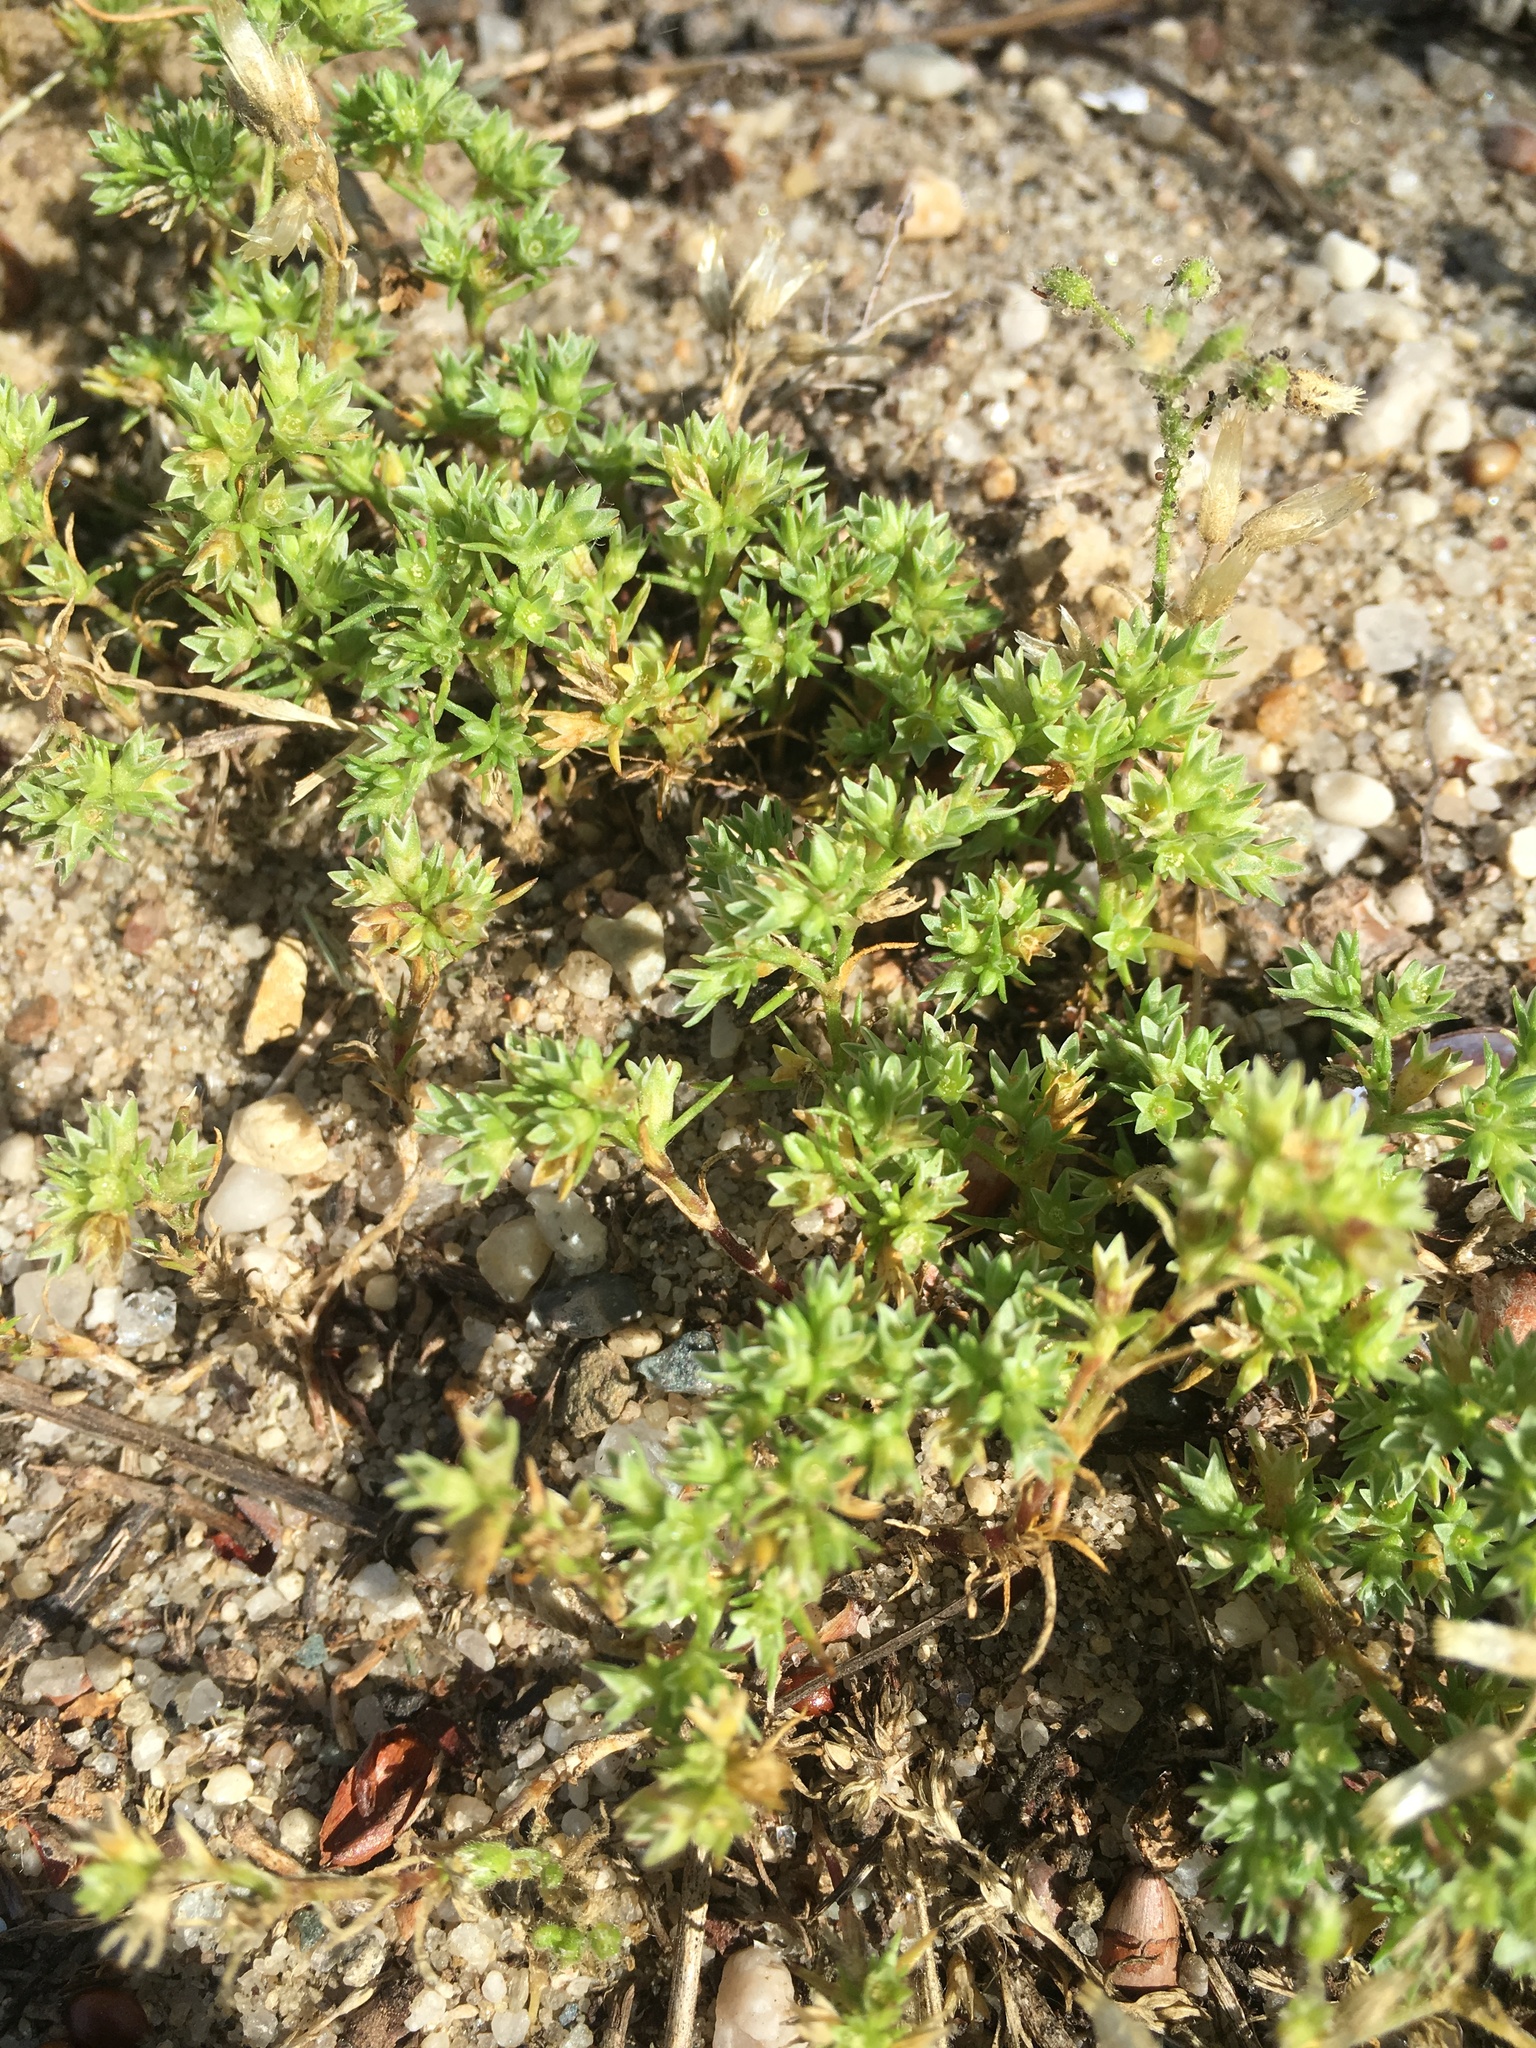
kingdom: Plantae
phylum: Tracheophyta
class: Magnoliopsida
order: Caryophyllales
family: Caryophyllaceae
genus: Scleranthus
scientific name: Scleranthus annuus
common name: Annual knawel
